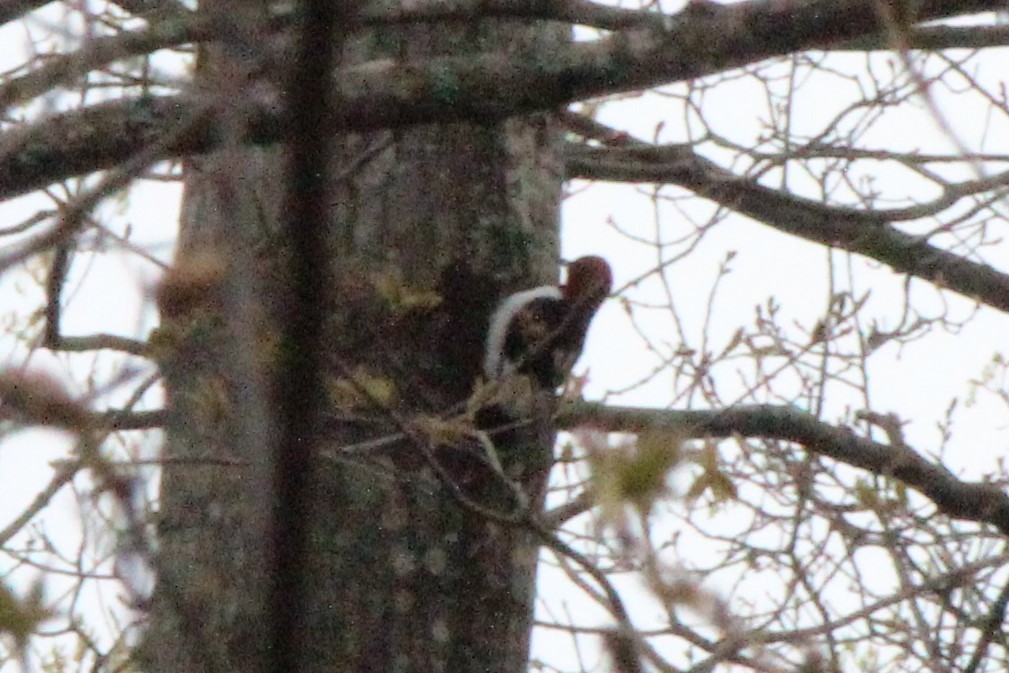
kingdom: Animalia
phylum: Chordata
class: Aves
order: Piciformes
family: Picidae
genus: Melanerpes
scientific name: Melanerpes erythrocephalus
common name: Red-headed woodpecker
